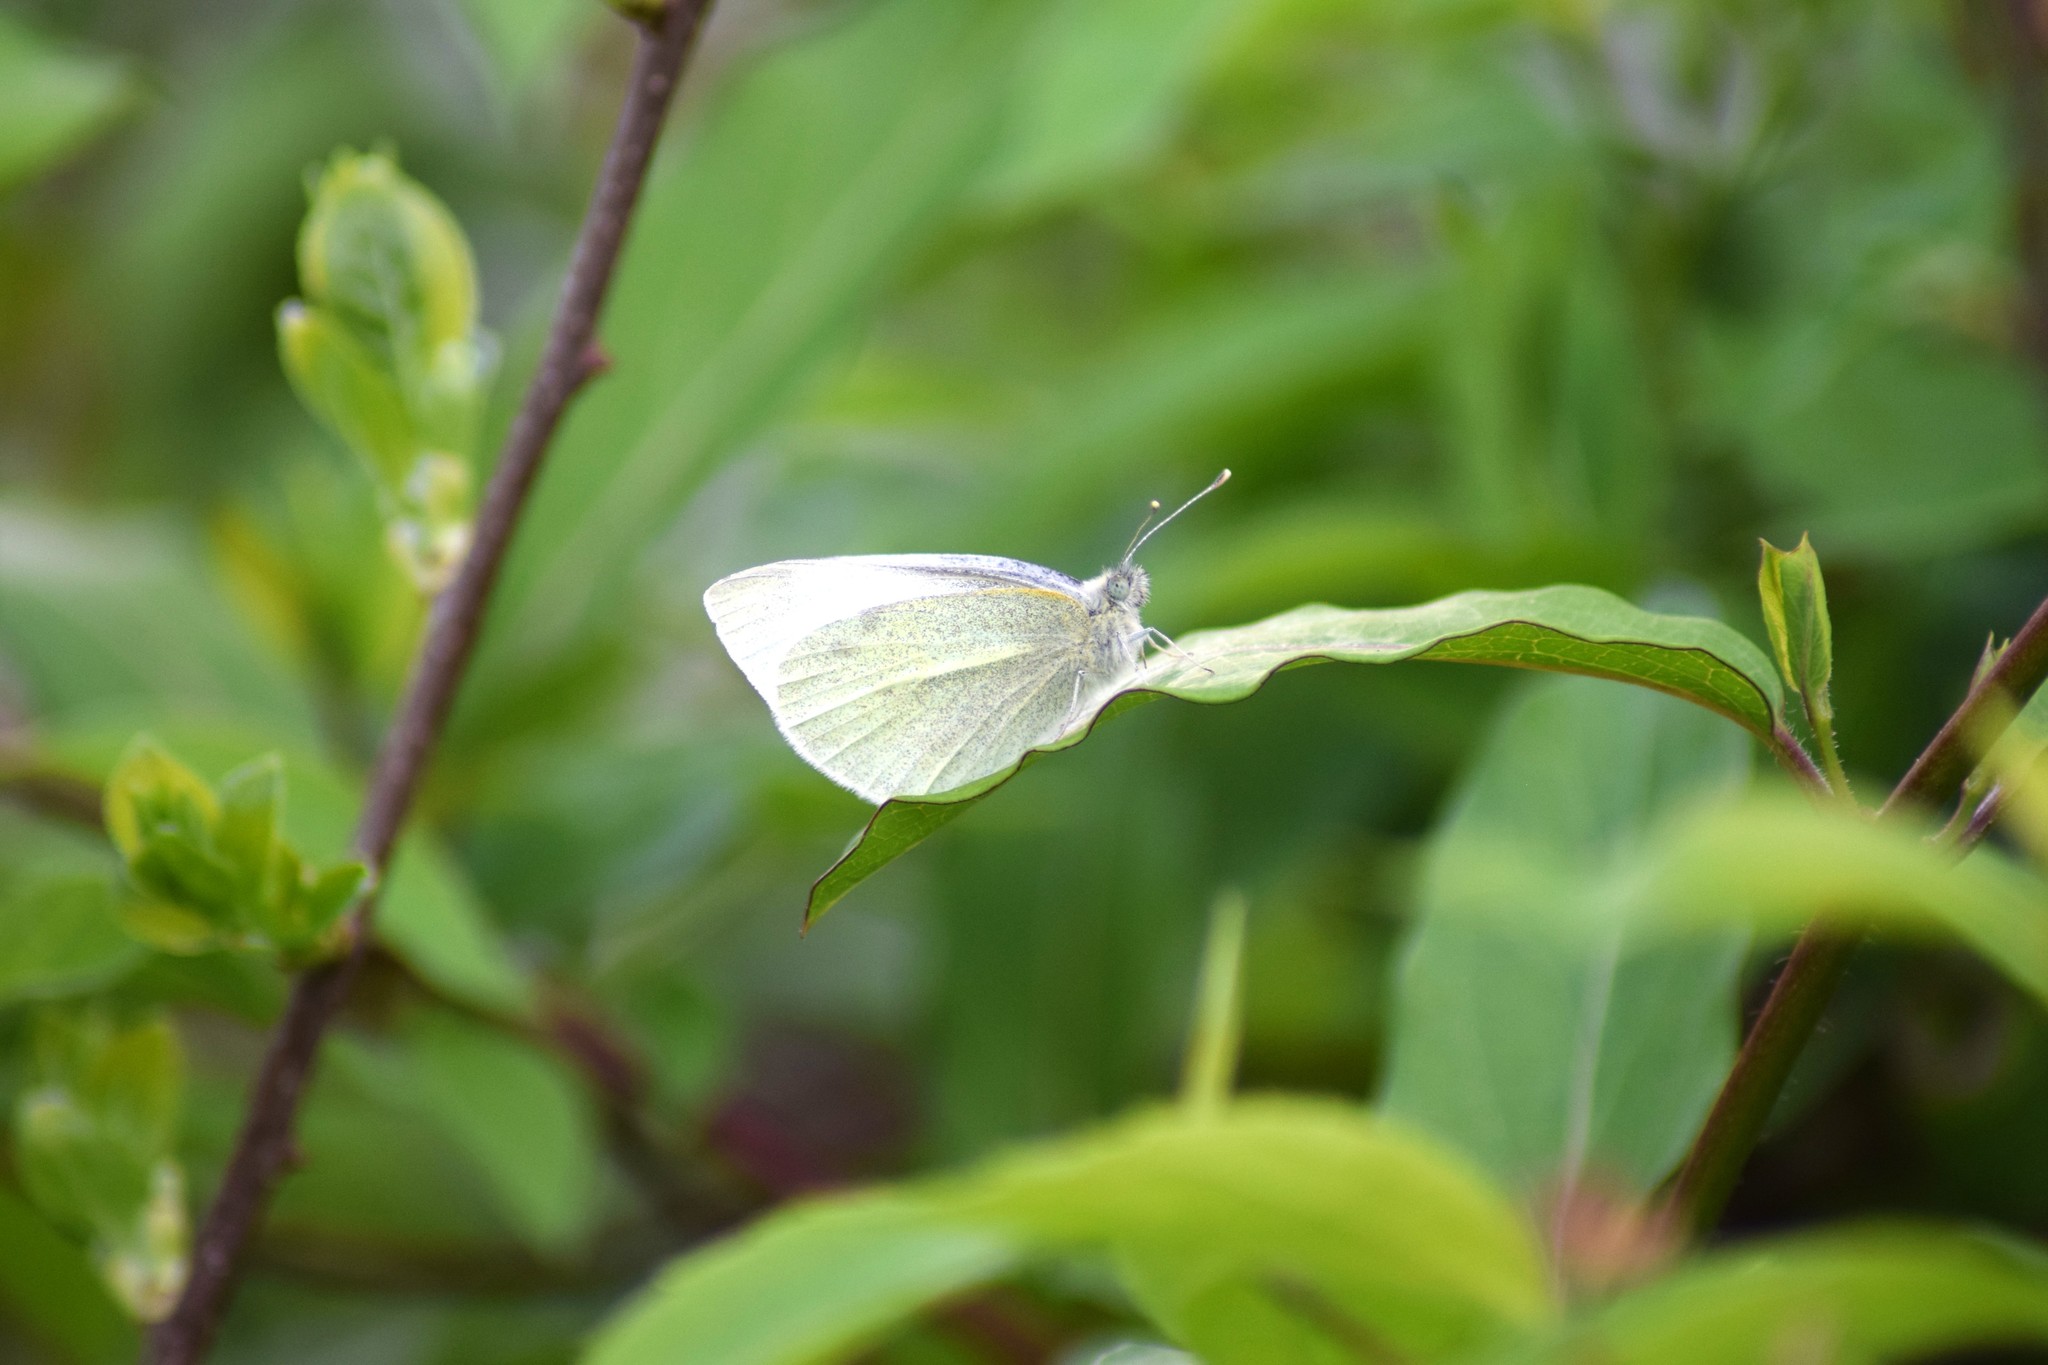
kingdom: Animalia
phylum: Arthropoda
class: Insecta
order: Lepidoptera
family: Pieridae
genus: Pieris
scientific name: Pieris rapae
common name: Small white
